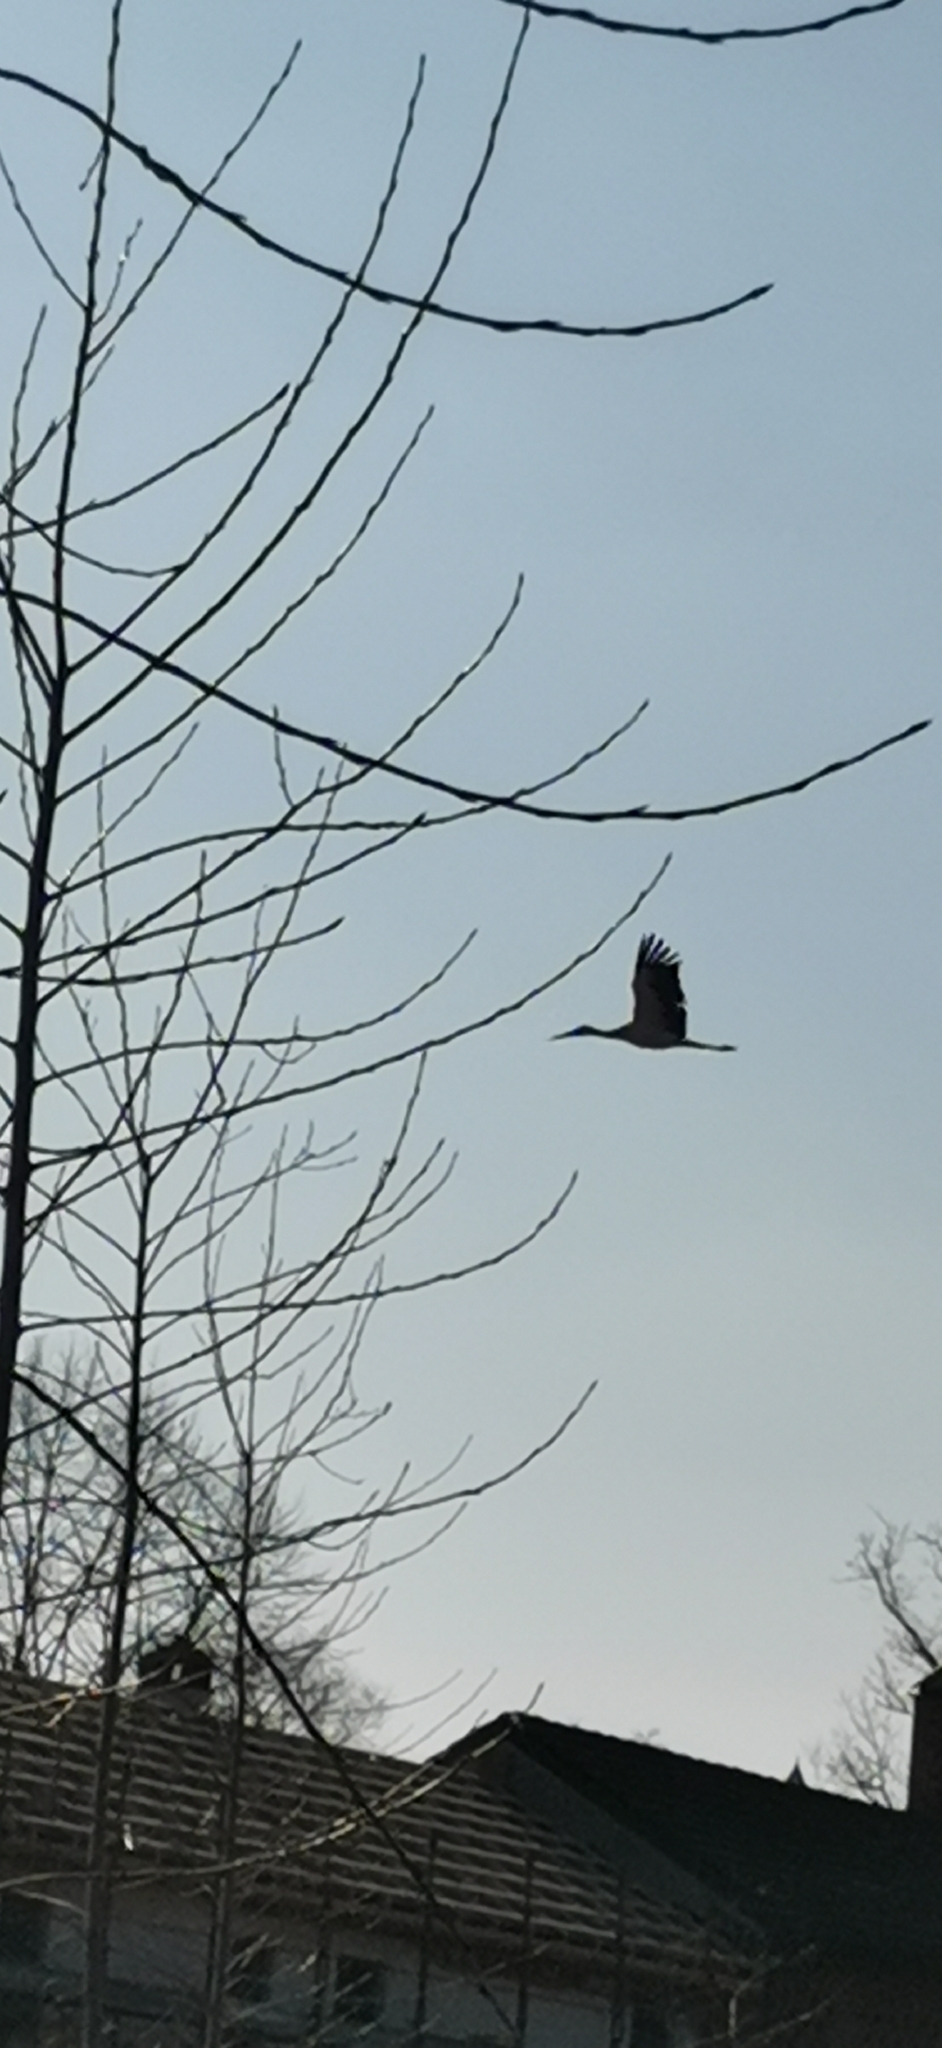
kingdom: Animalia
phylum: Chordata
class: Aves
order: Ciconiiformes
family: Ciconiidae
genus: Ciconia
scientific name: Ciconia ciconia
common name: White stork
